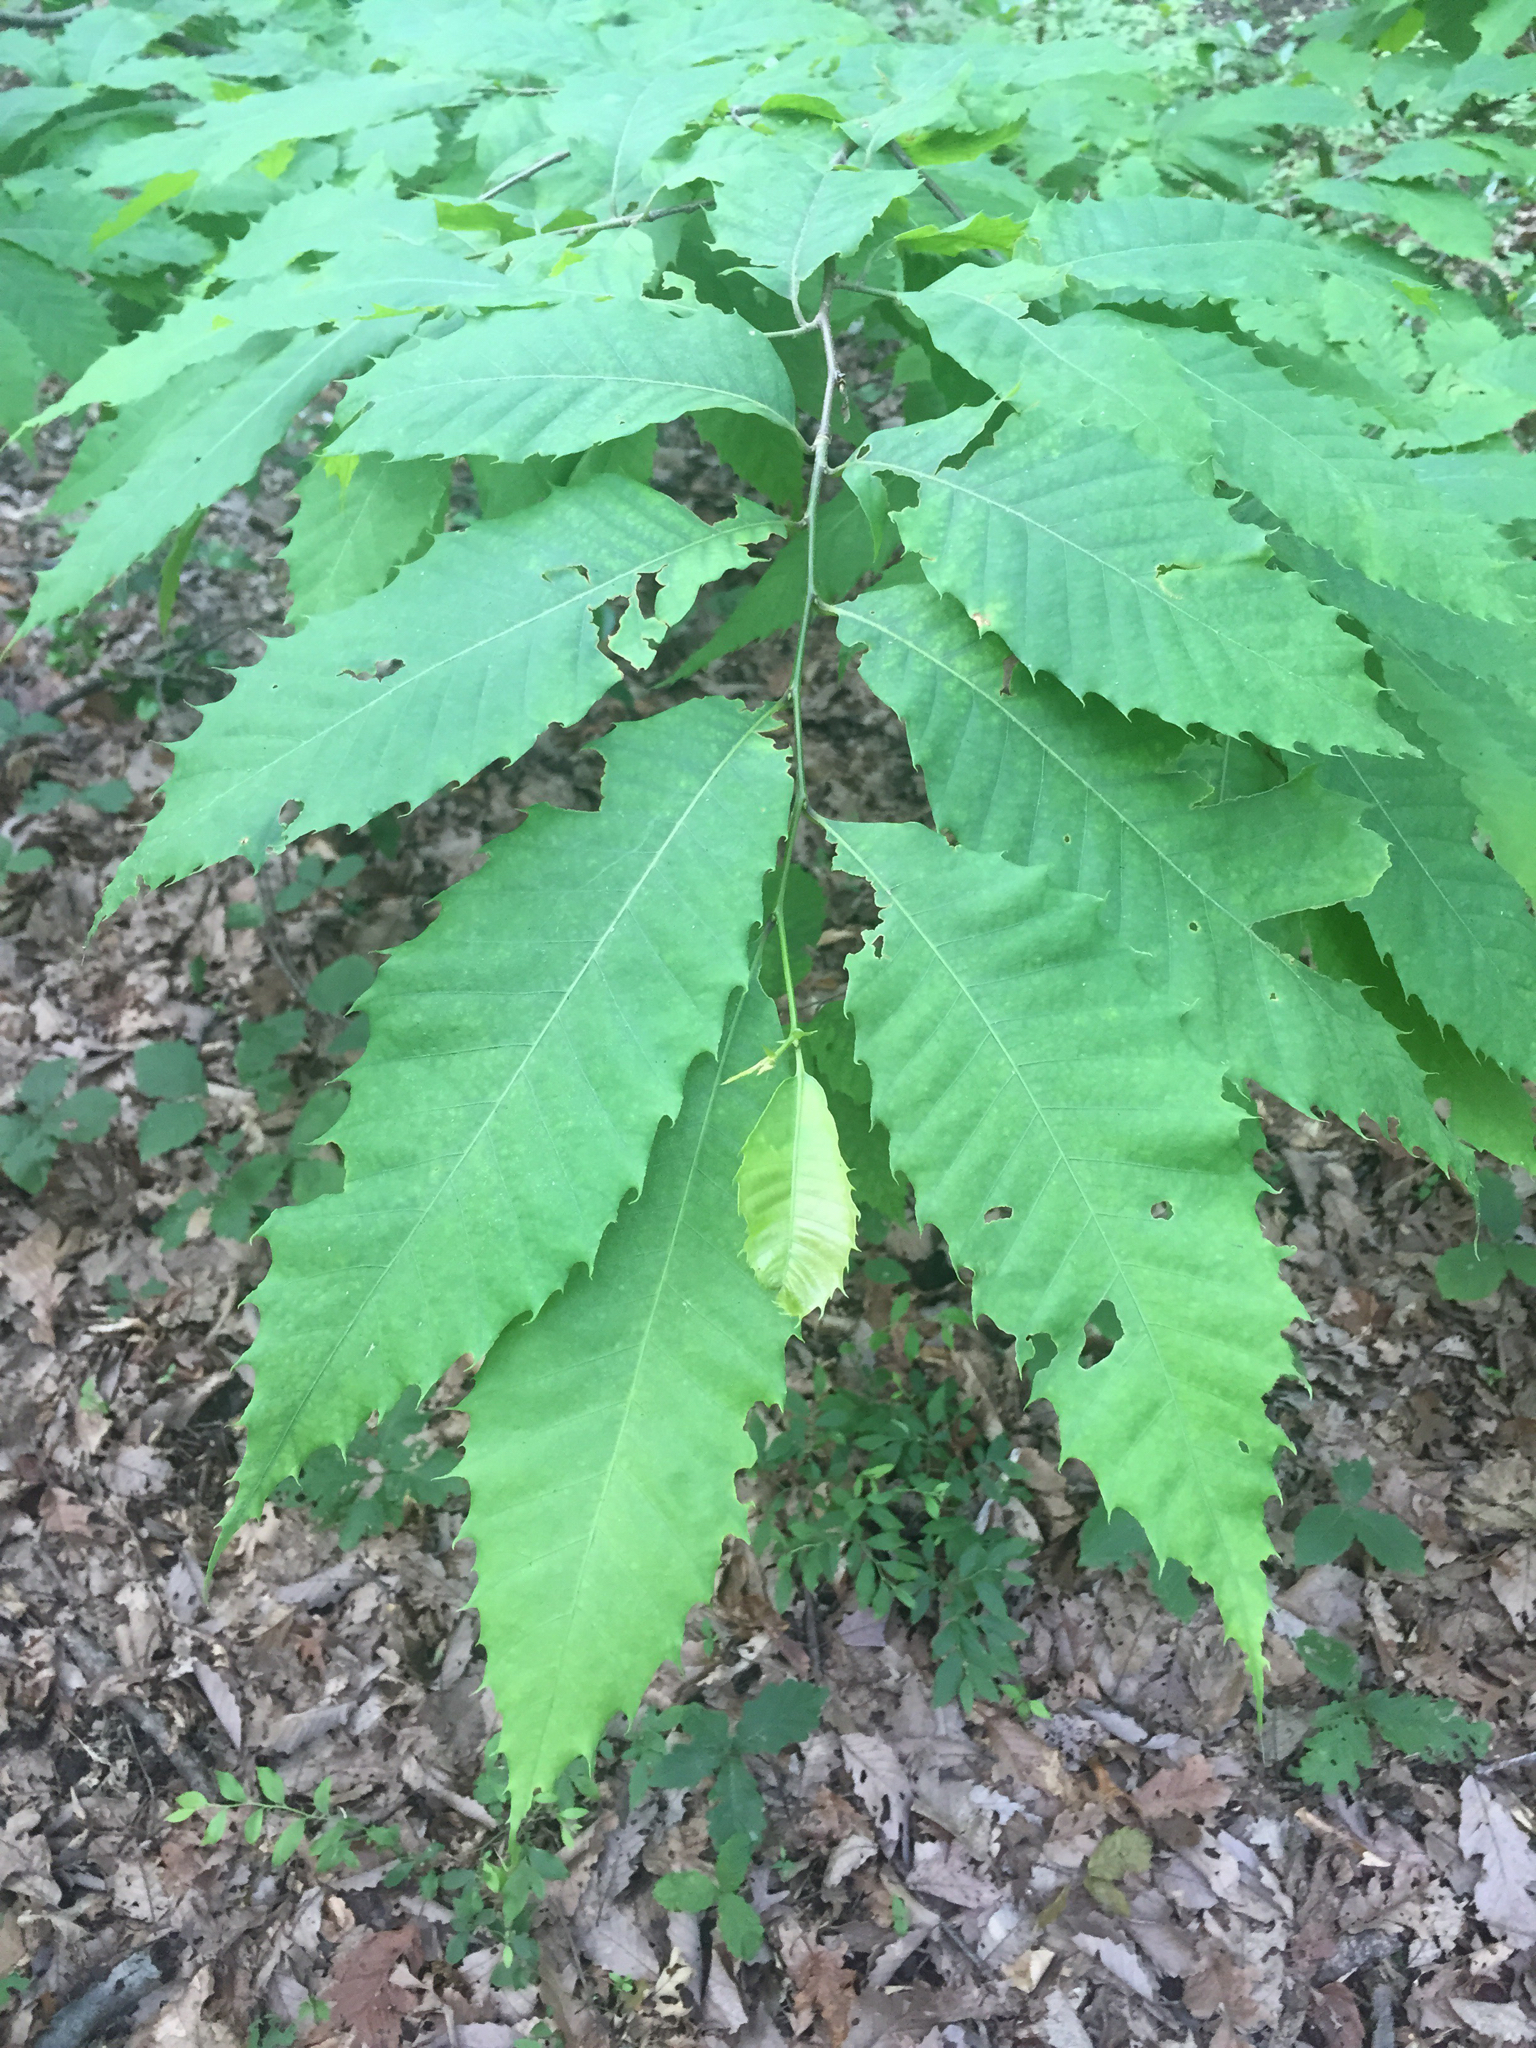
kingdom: Plantae
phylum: Tracheophyta
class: Magnoliopsida
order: Fagales
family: Fagaceae
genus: Castanea
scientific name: Castanea dentata
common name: American chestnut
